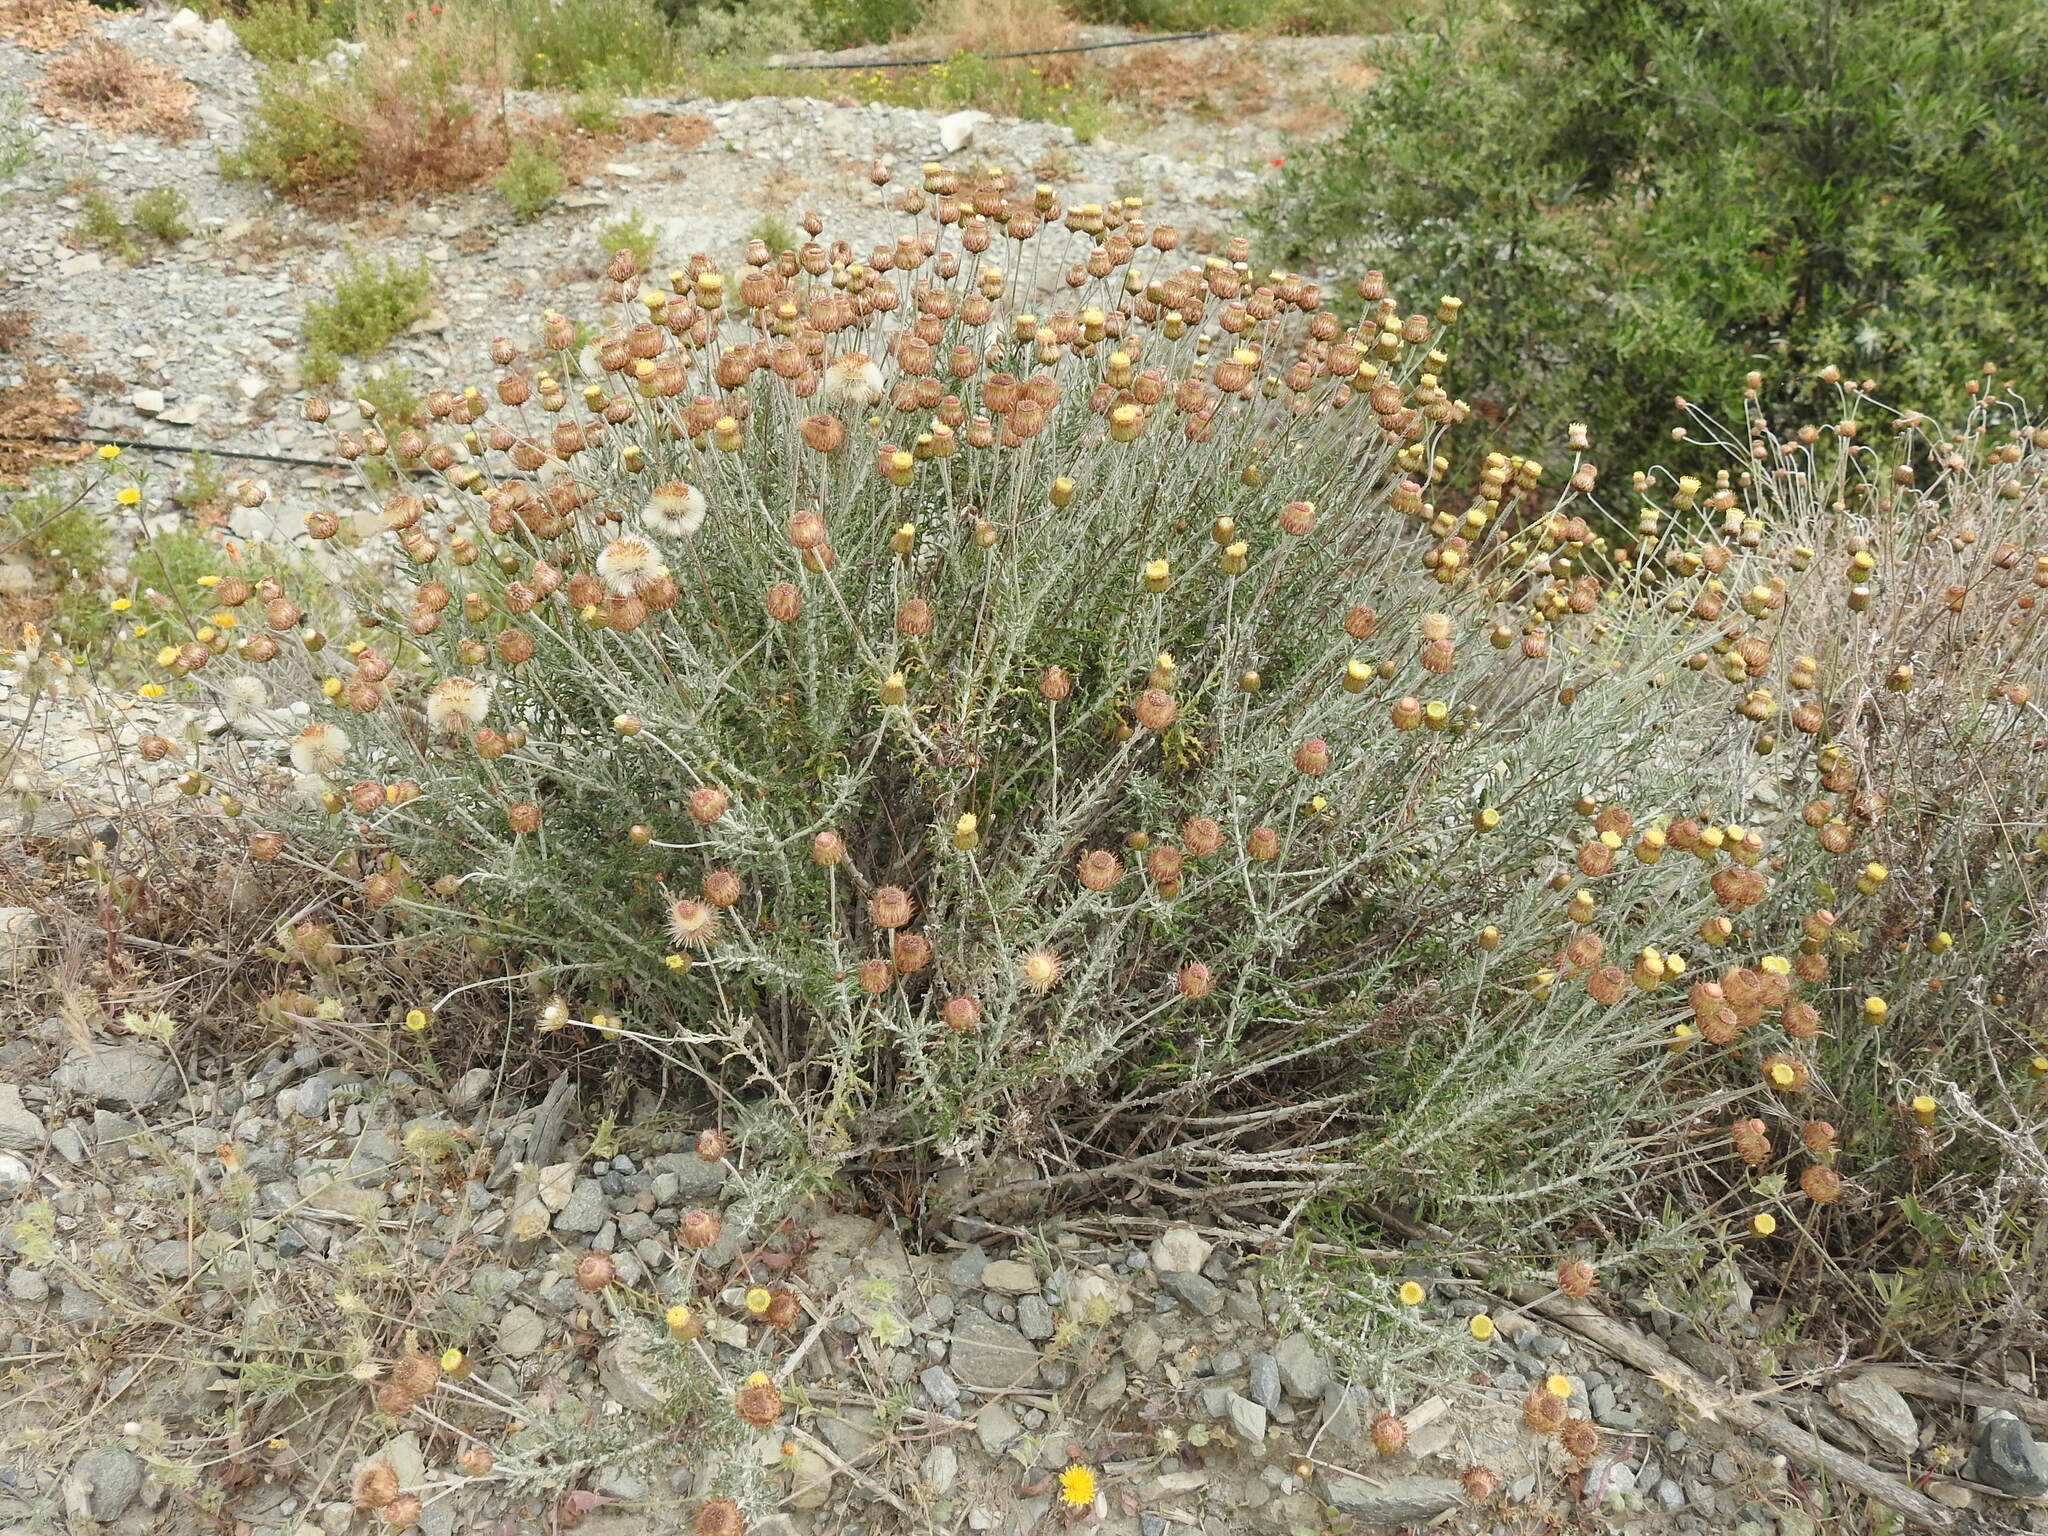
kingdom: Plantae
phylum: Tracheophyta
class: Magnoliopsida
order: Asterales
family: Asteraceae
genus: Phagnalon
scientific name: Phagnalon graecum
